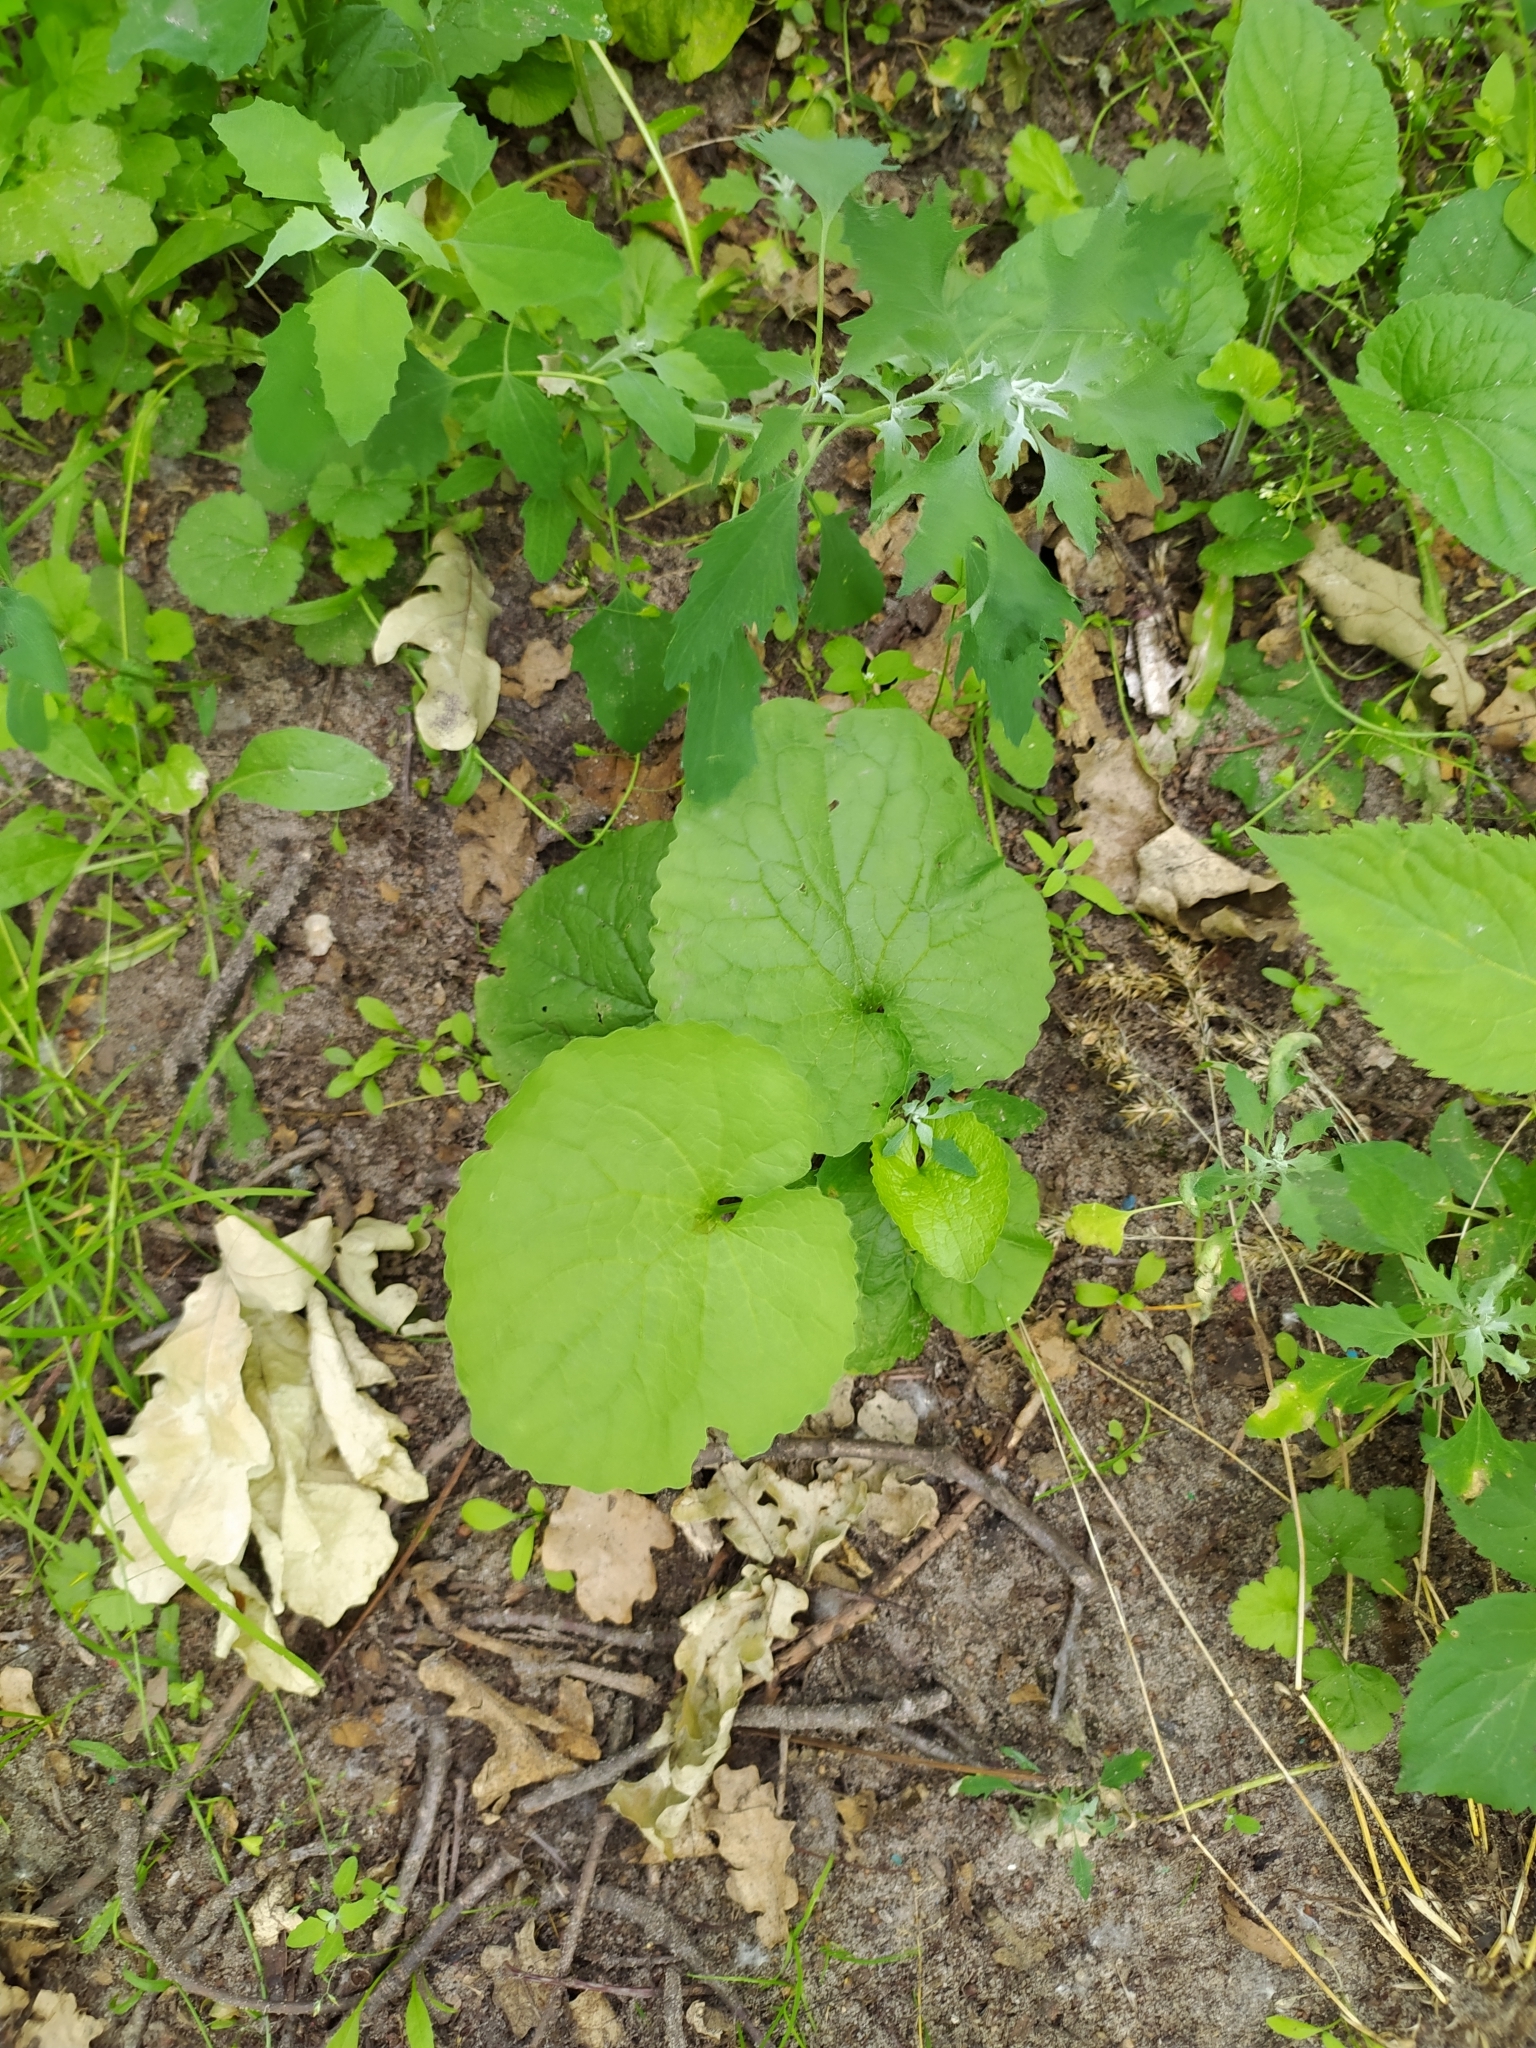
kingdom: Plantae
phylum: Tracheophyta
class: Magnoliopsida
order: Brassicales
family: Brassicaceae
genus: Alliaria
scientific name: Alliaria petiolata
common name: Garlic mustard
